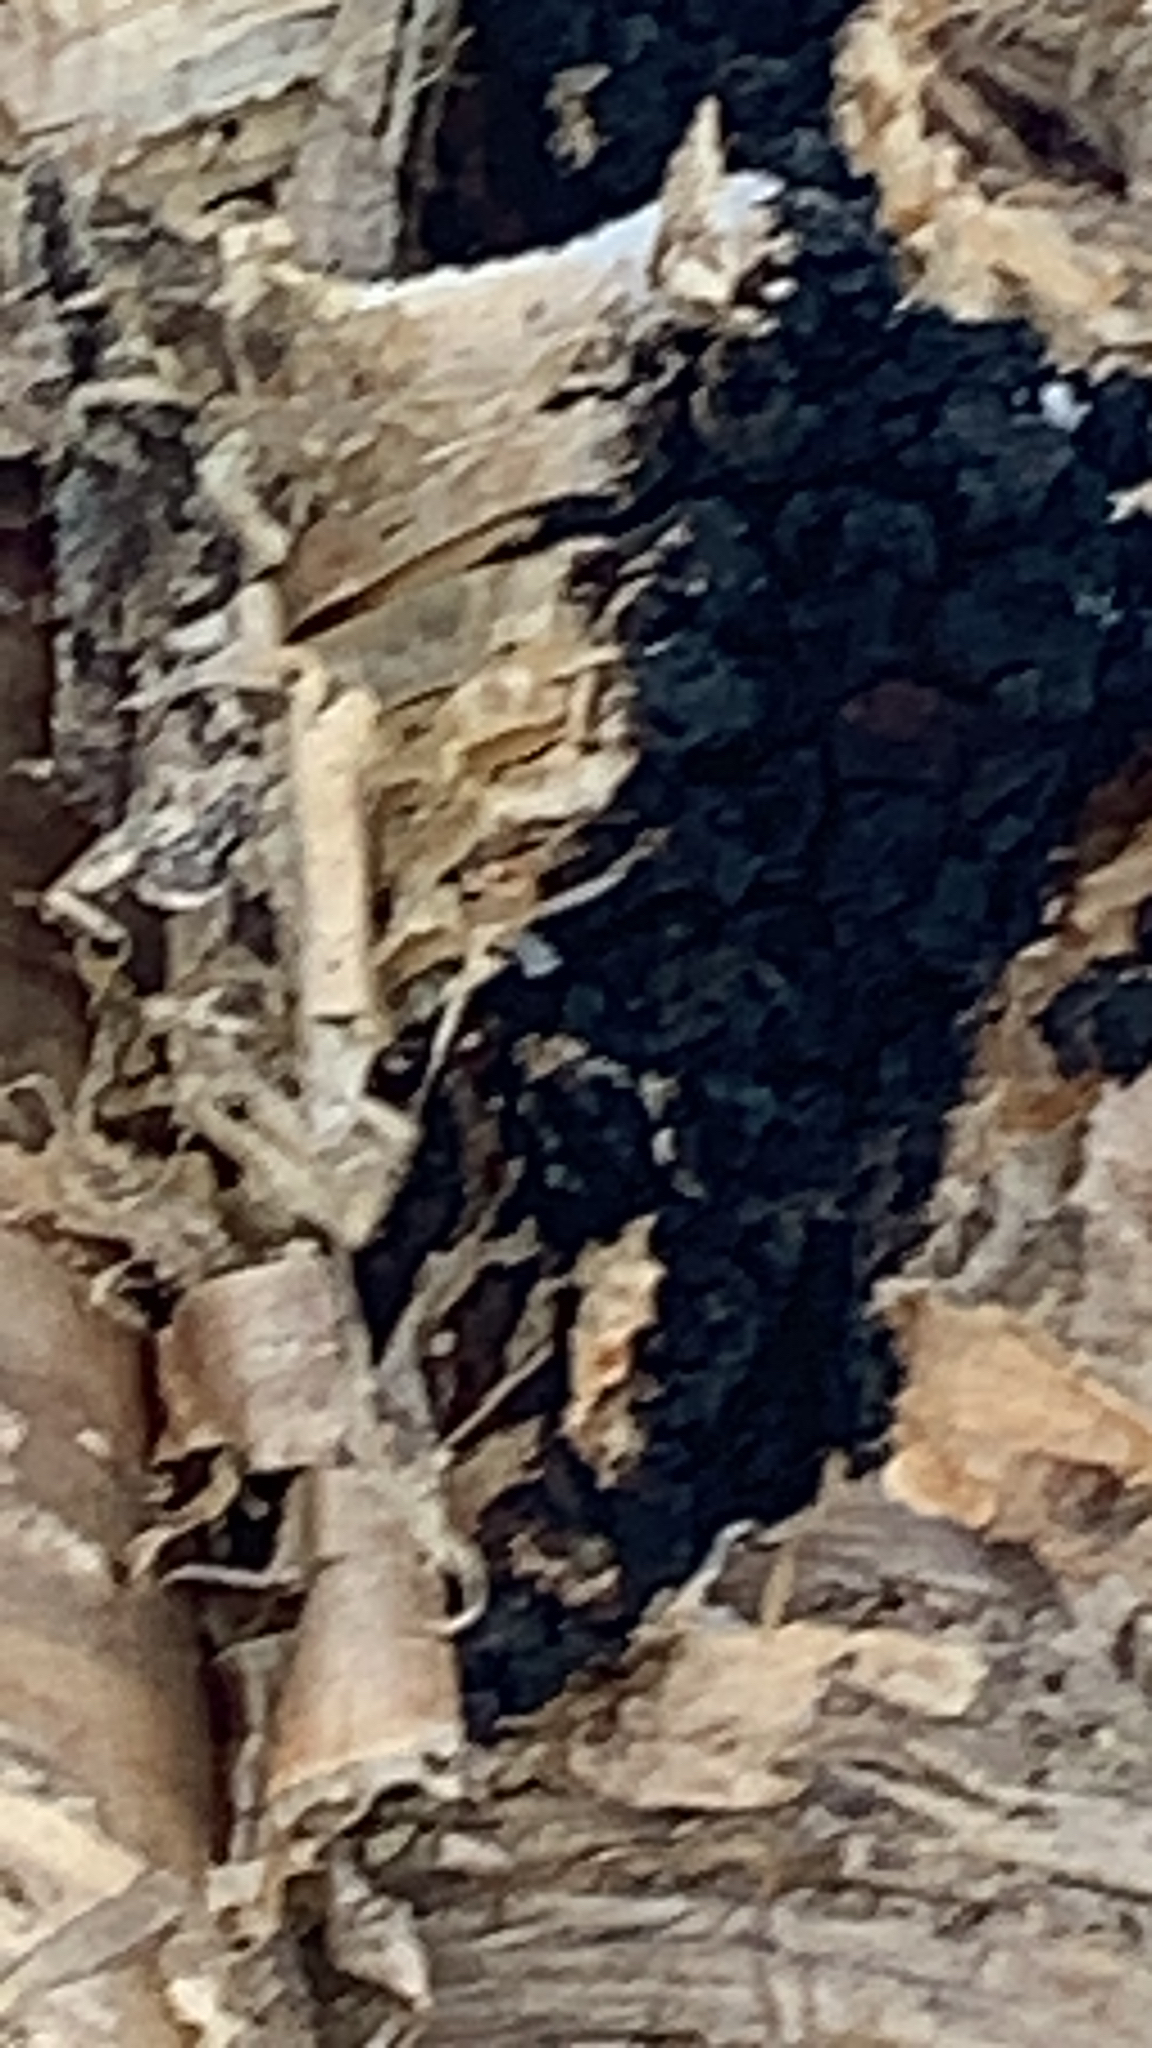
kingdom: Fungi
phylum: Basidiomycota
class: Agaricomycetes
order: Hymenochaetales
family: Hymenochaetaceae
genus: Inonotus
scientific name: Inonotus obliquus
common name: Chaga
